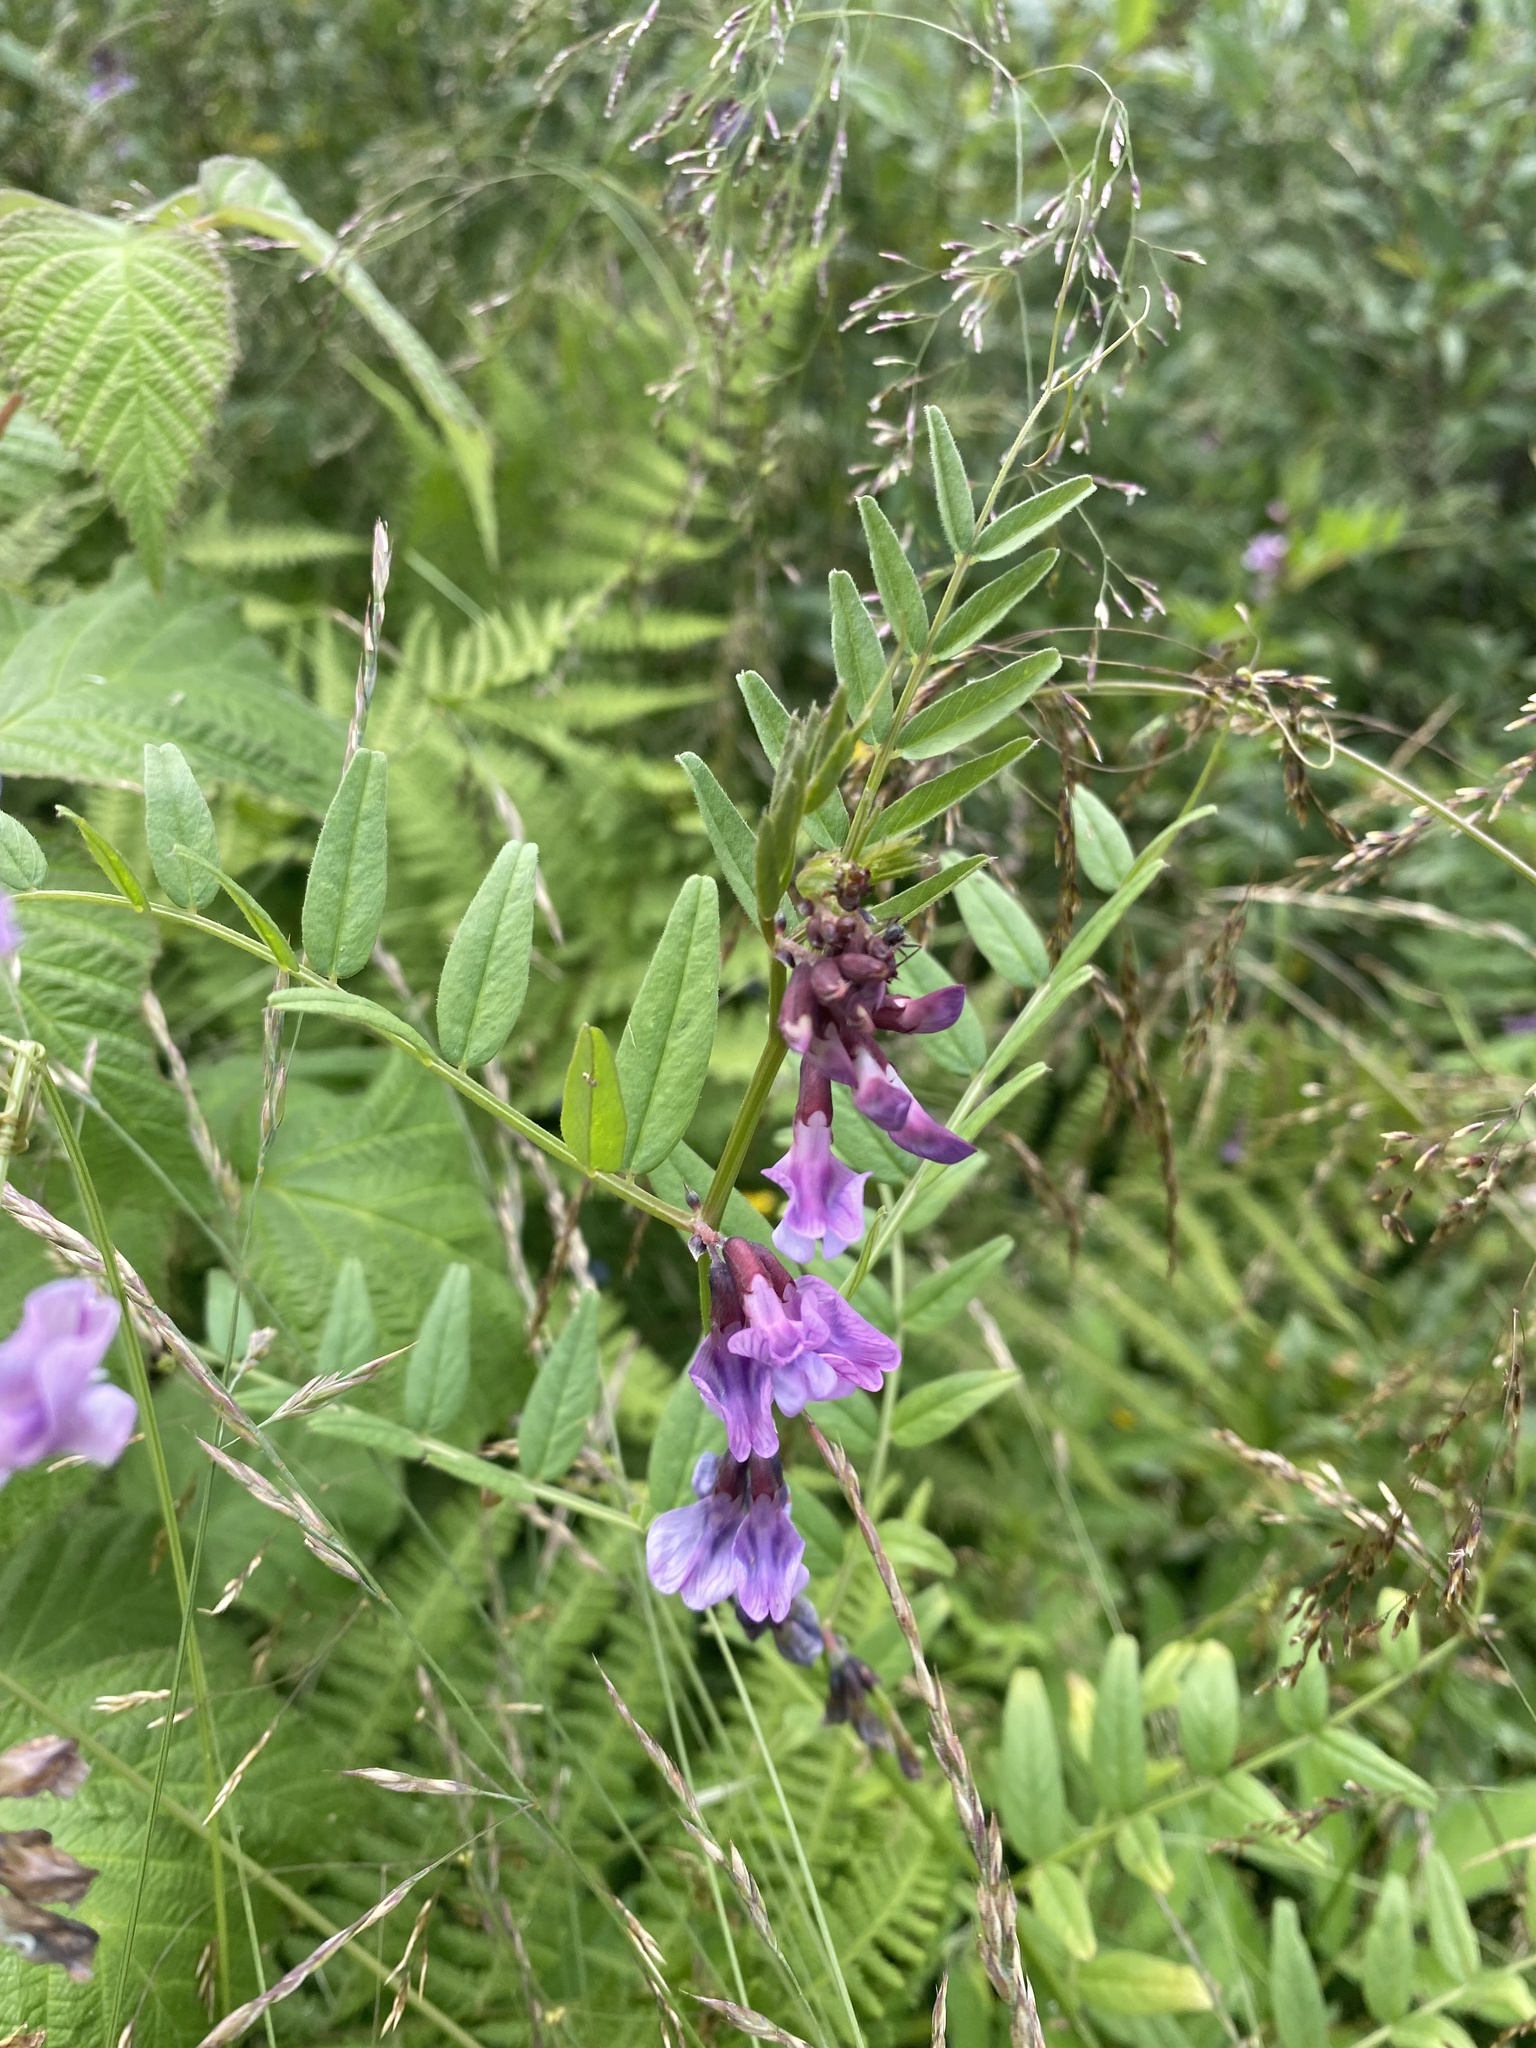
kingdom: Plantae
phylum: Tracheophyta
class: Magnoliopsida
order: Fabales
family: Fabaceae
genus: Vicia
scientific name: Vicia sepium
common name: Bush vetch
